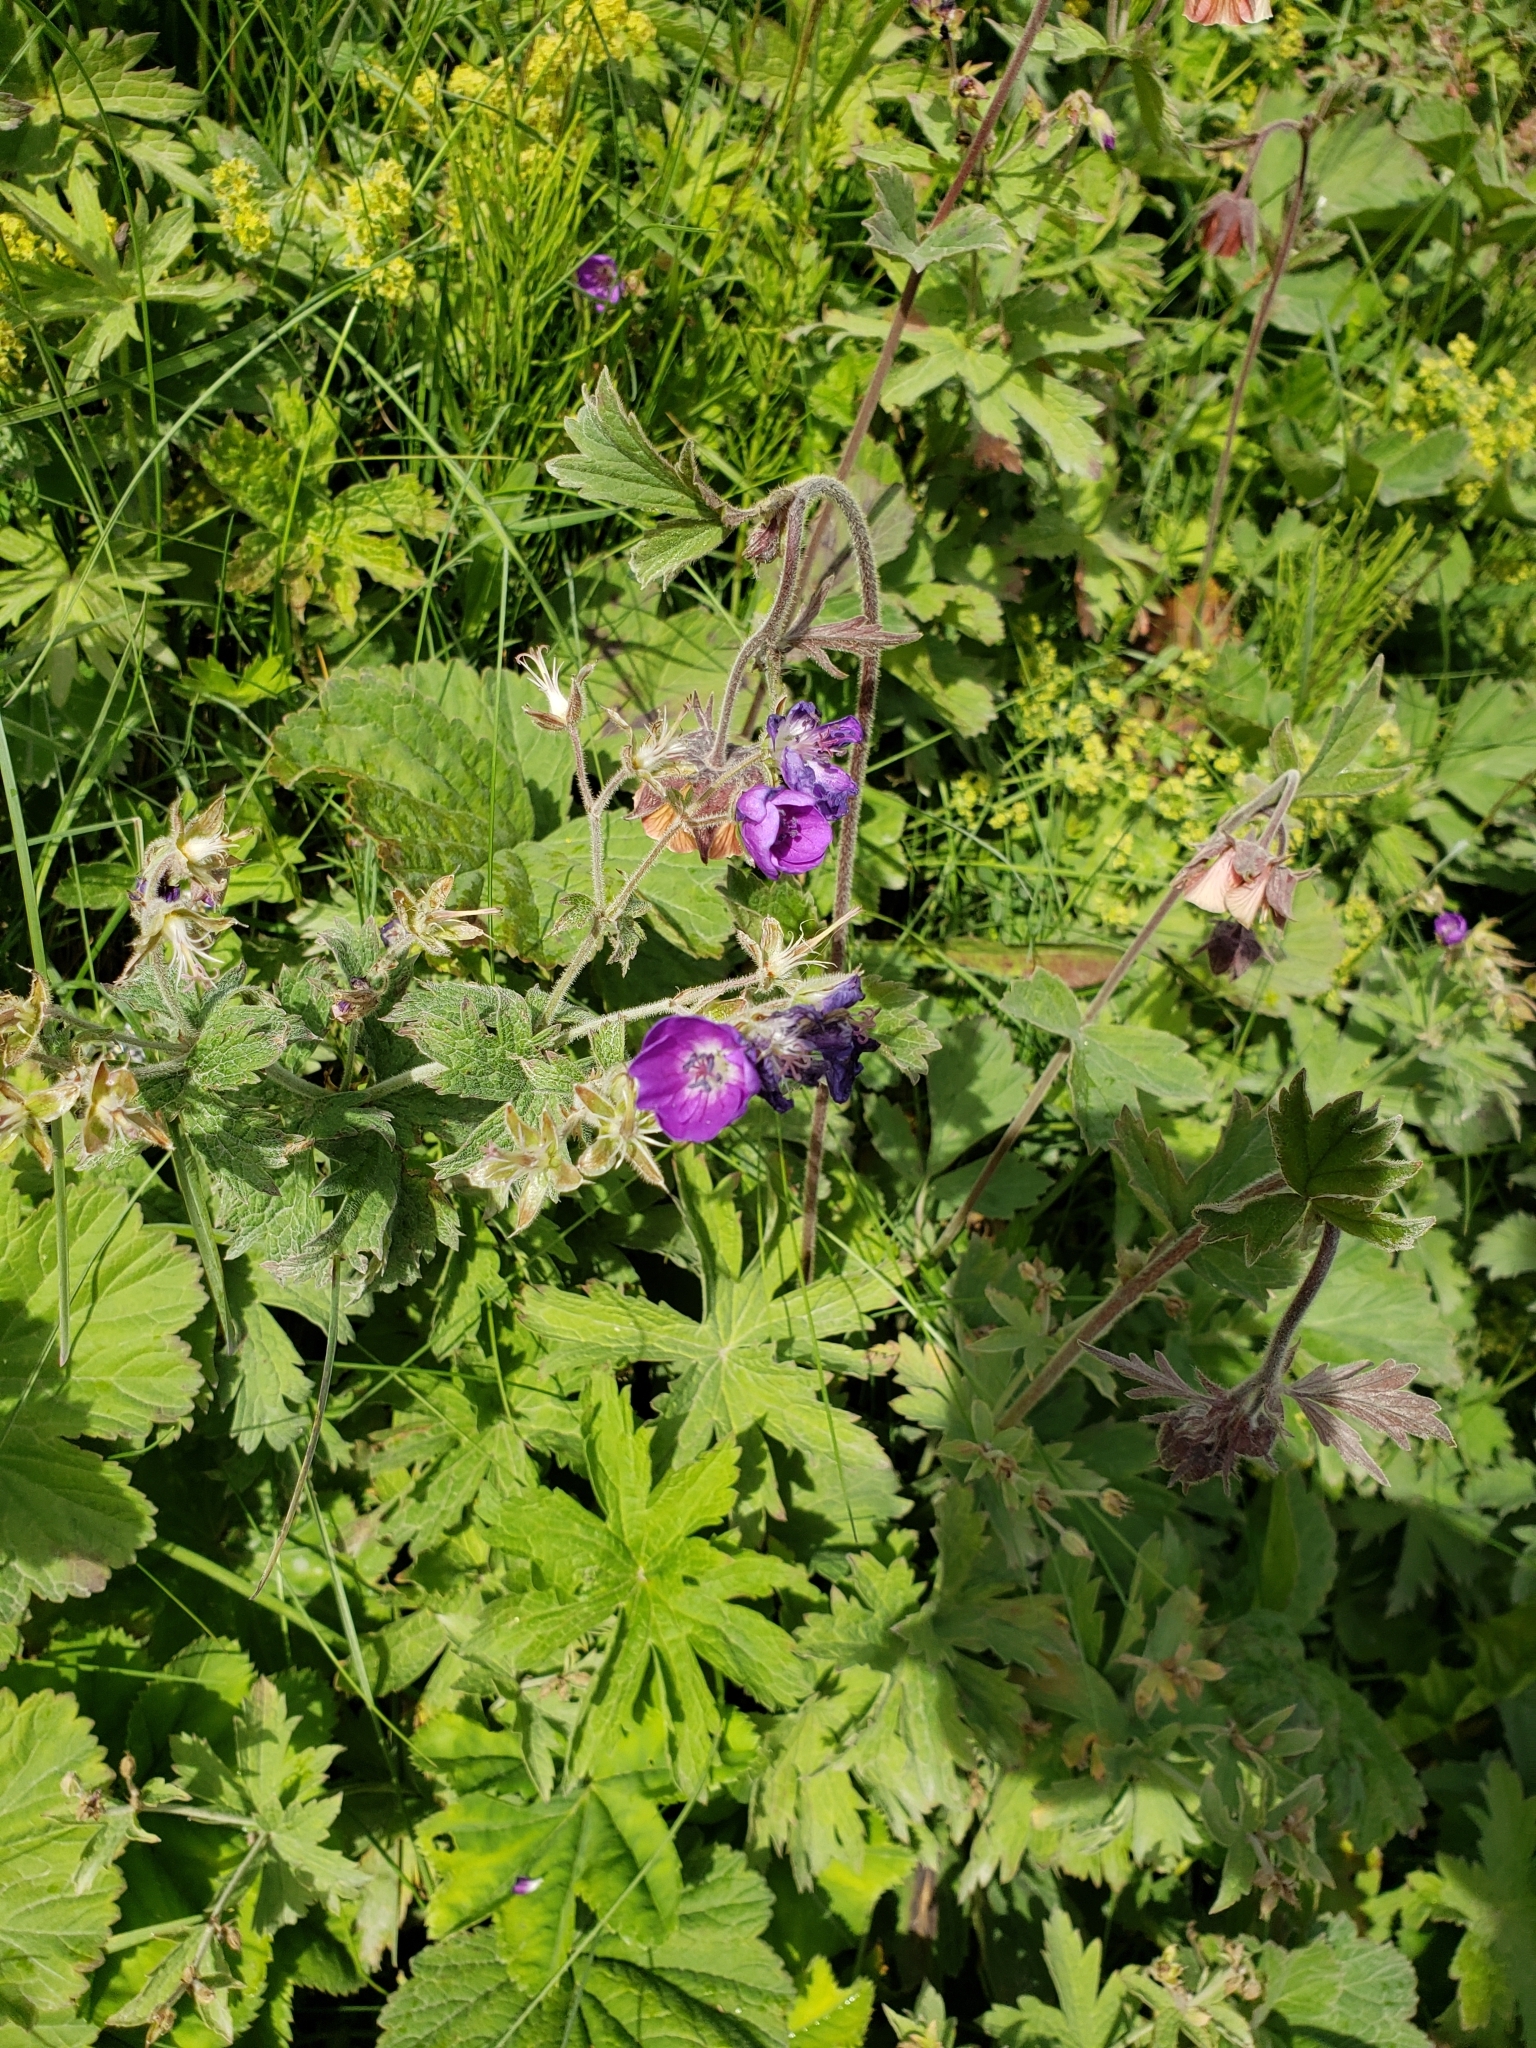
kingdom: Plantae
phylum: Tracheophyta
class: Magnoliopsida
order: Geraniales
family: Geraniaceae
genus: Geranium
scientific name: Geranium sylvaticum
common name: Wood crane's-bill
